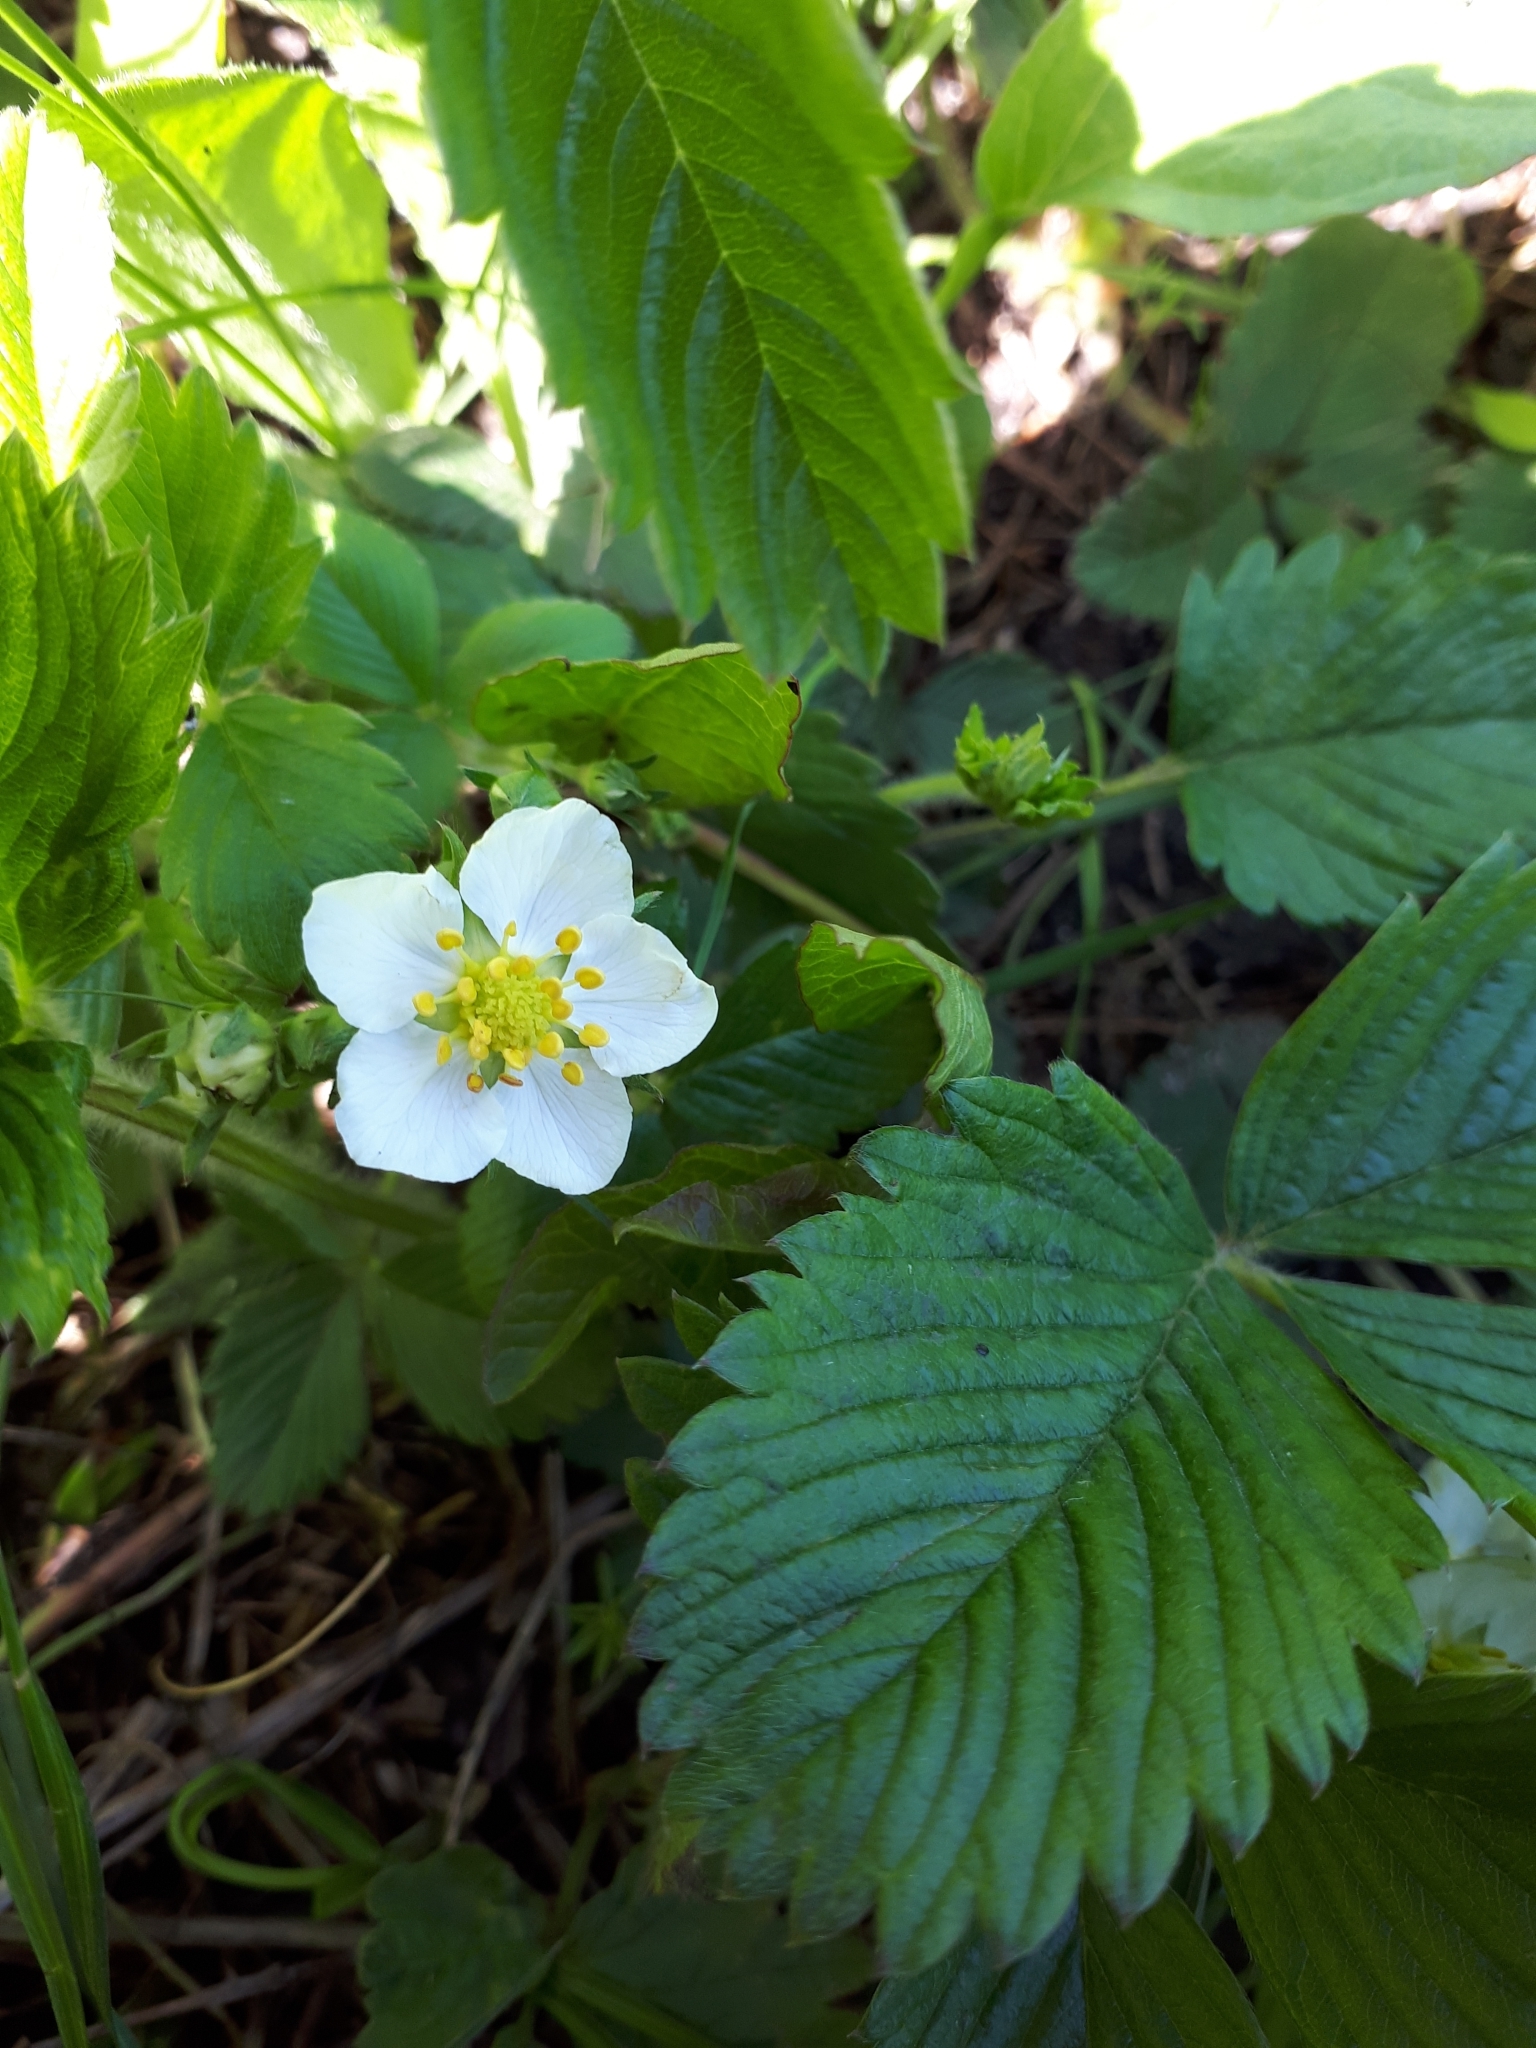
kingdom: Plantae
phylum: Tracheophyta
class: Magnoliopsida
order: Rosales
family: Rosaceae
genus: Fragaria
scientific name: Fragaria viridis
